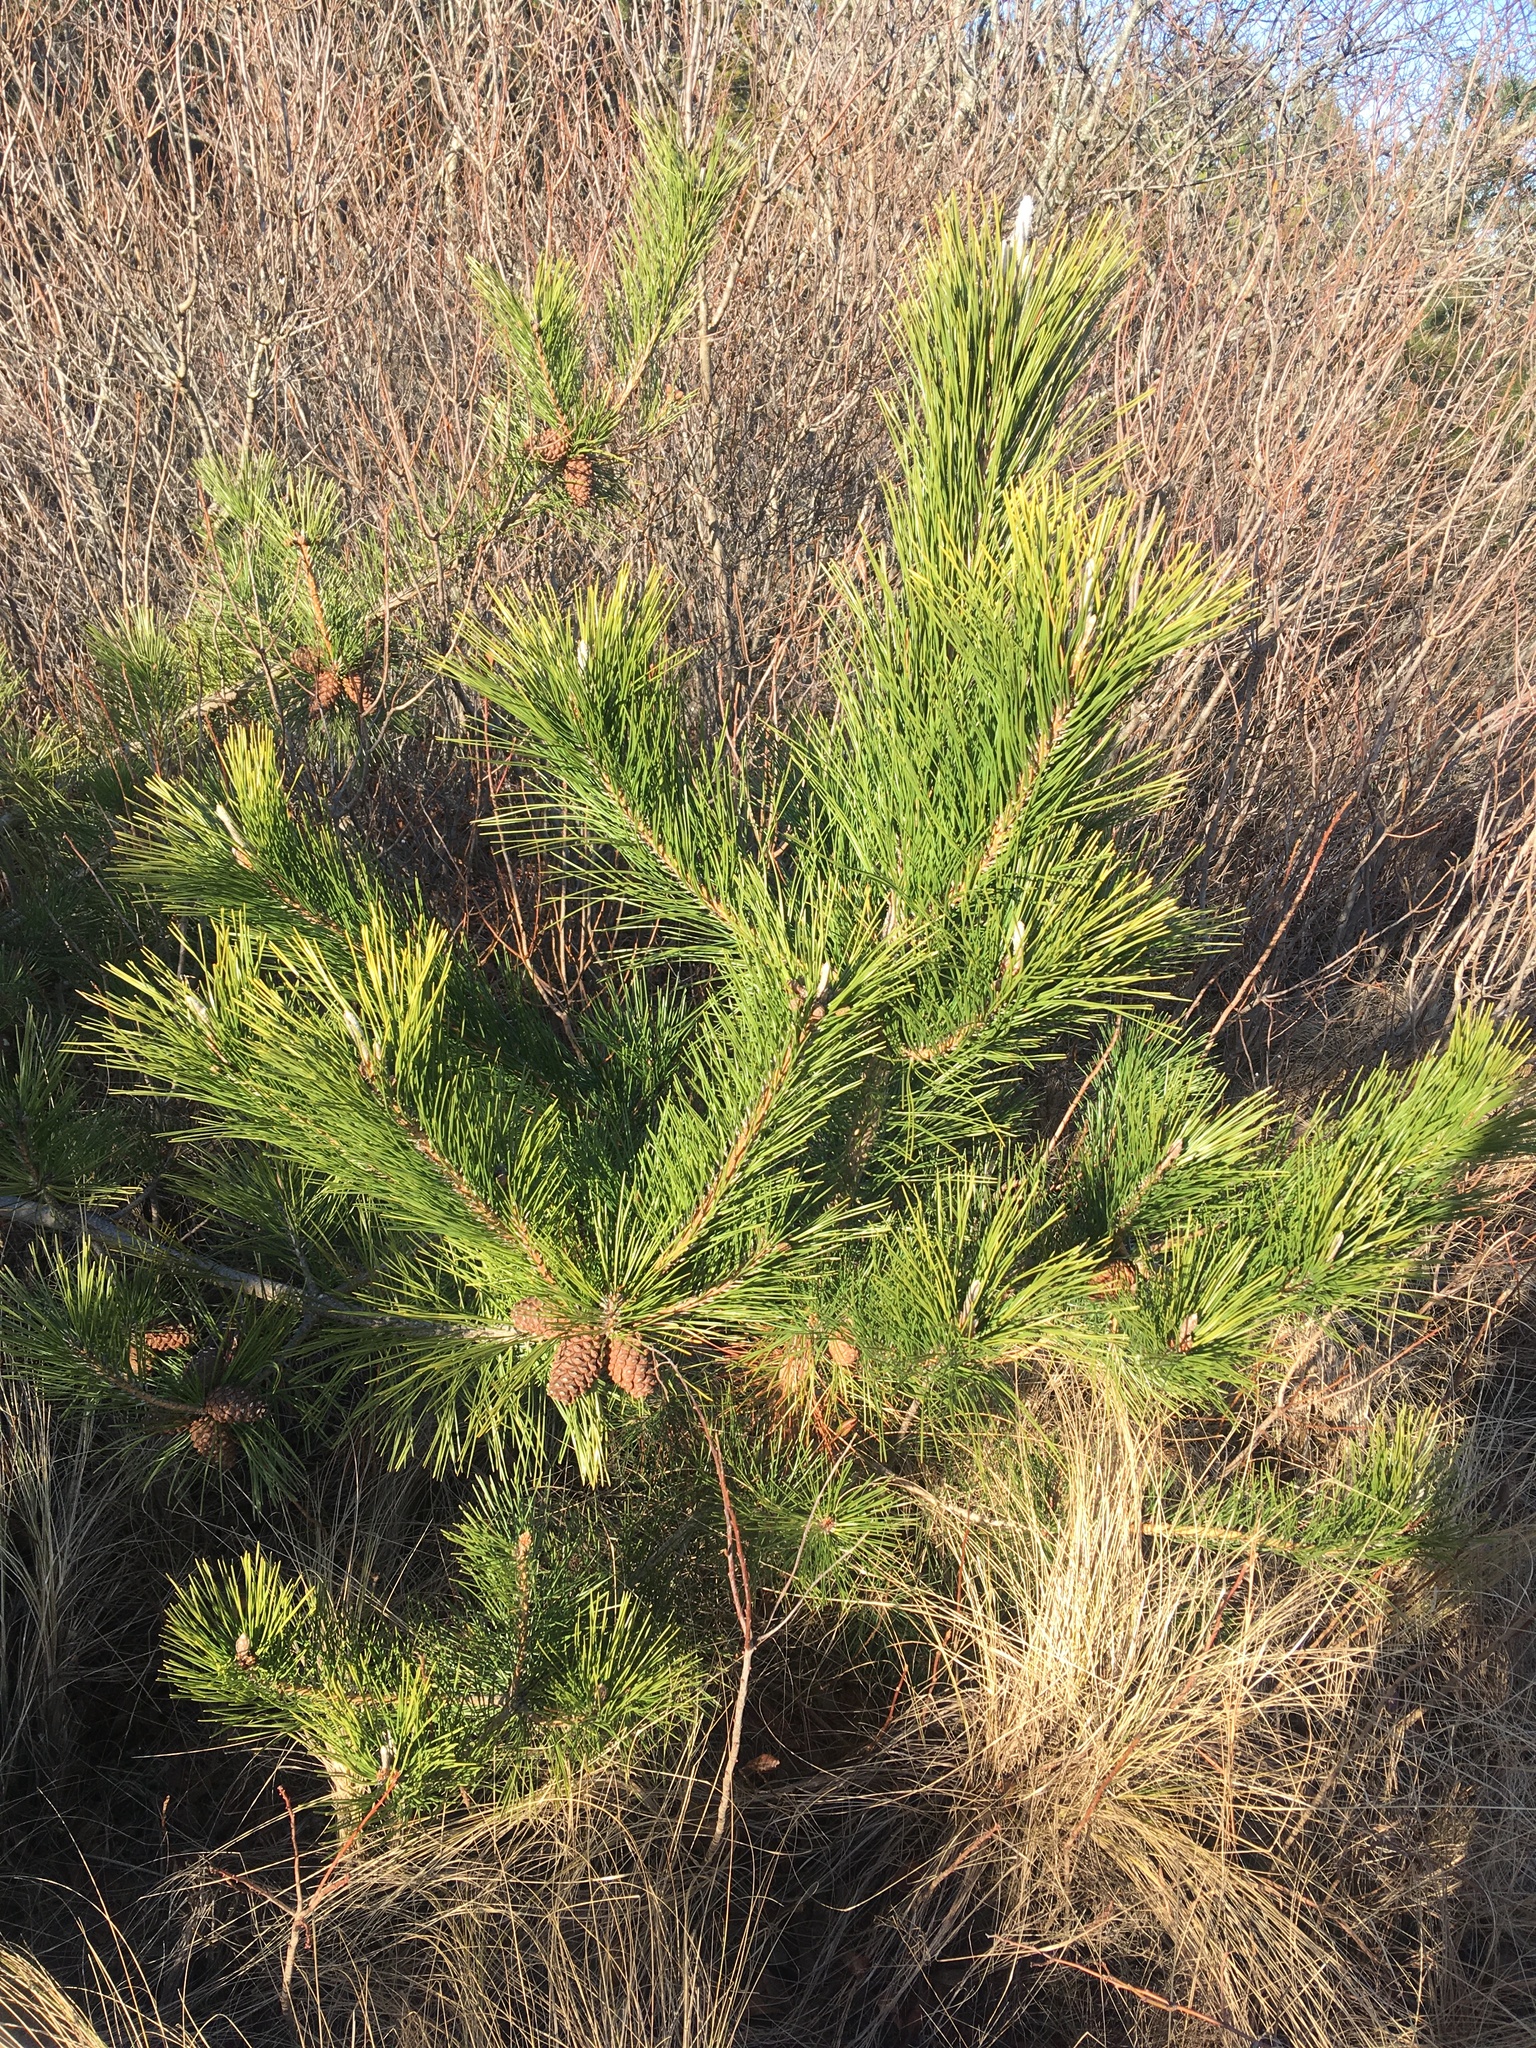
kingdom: Plantae
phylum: Tracheophyta
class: Pinopsida
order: Pinales
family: Pinaceae
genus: Pinus
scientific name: Pinus resinosa
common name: Norway pine
